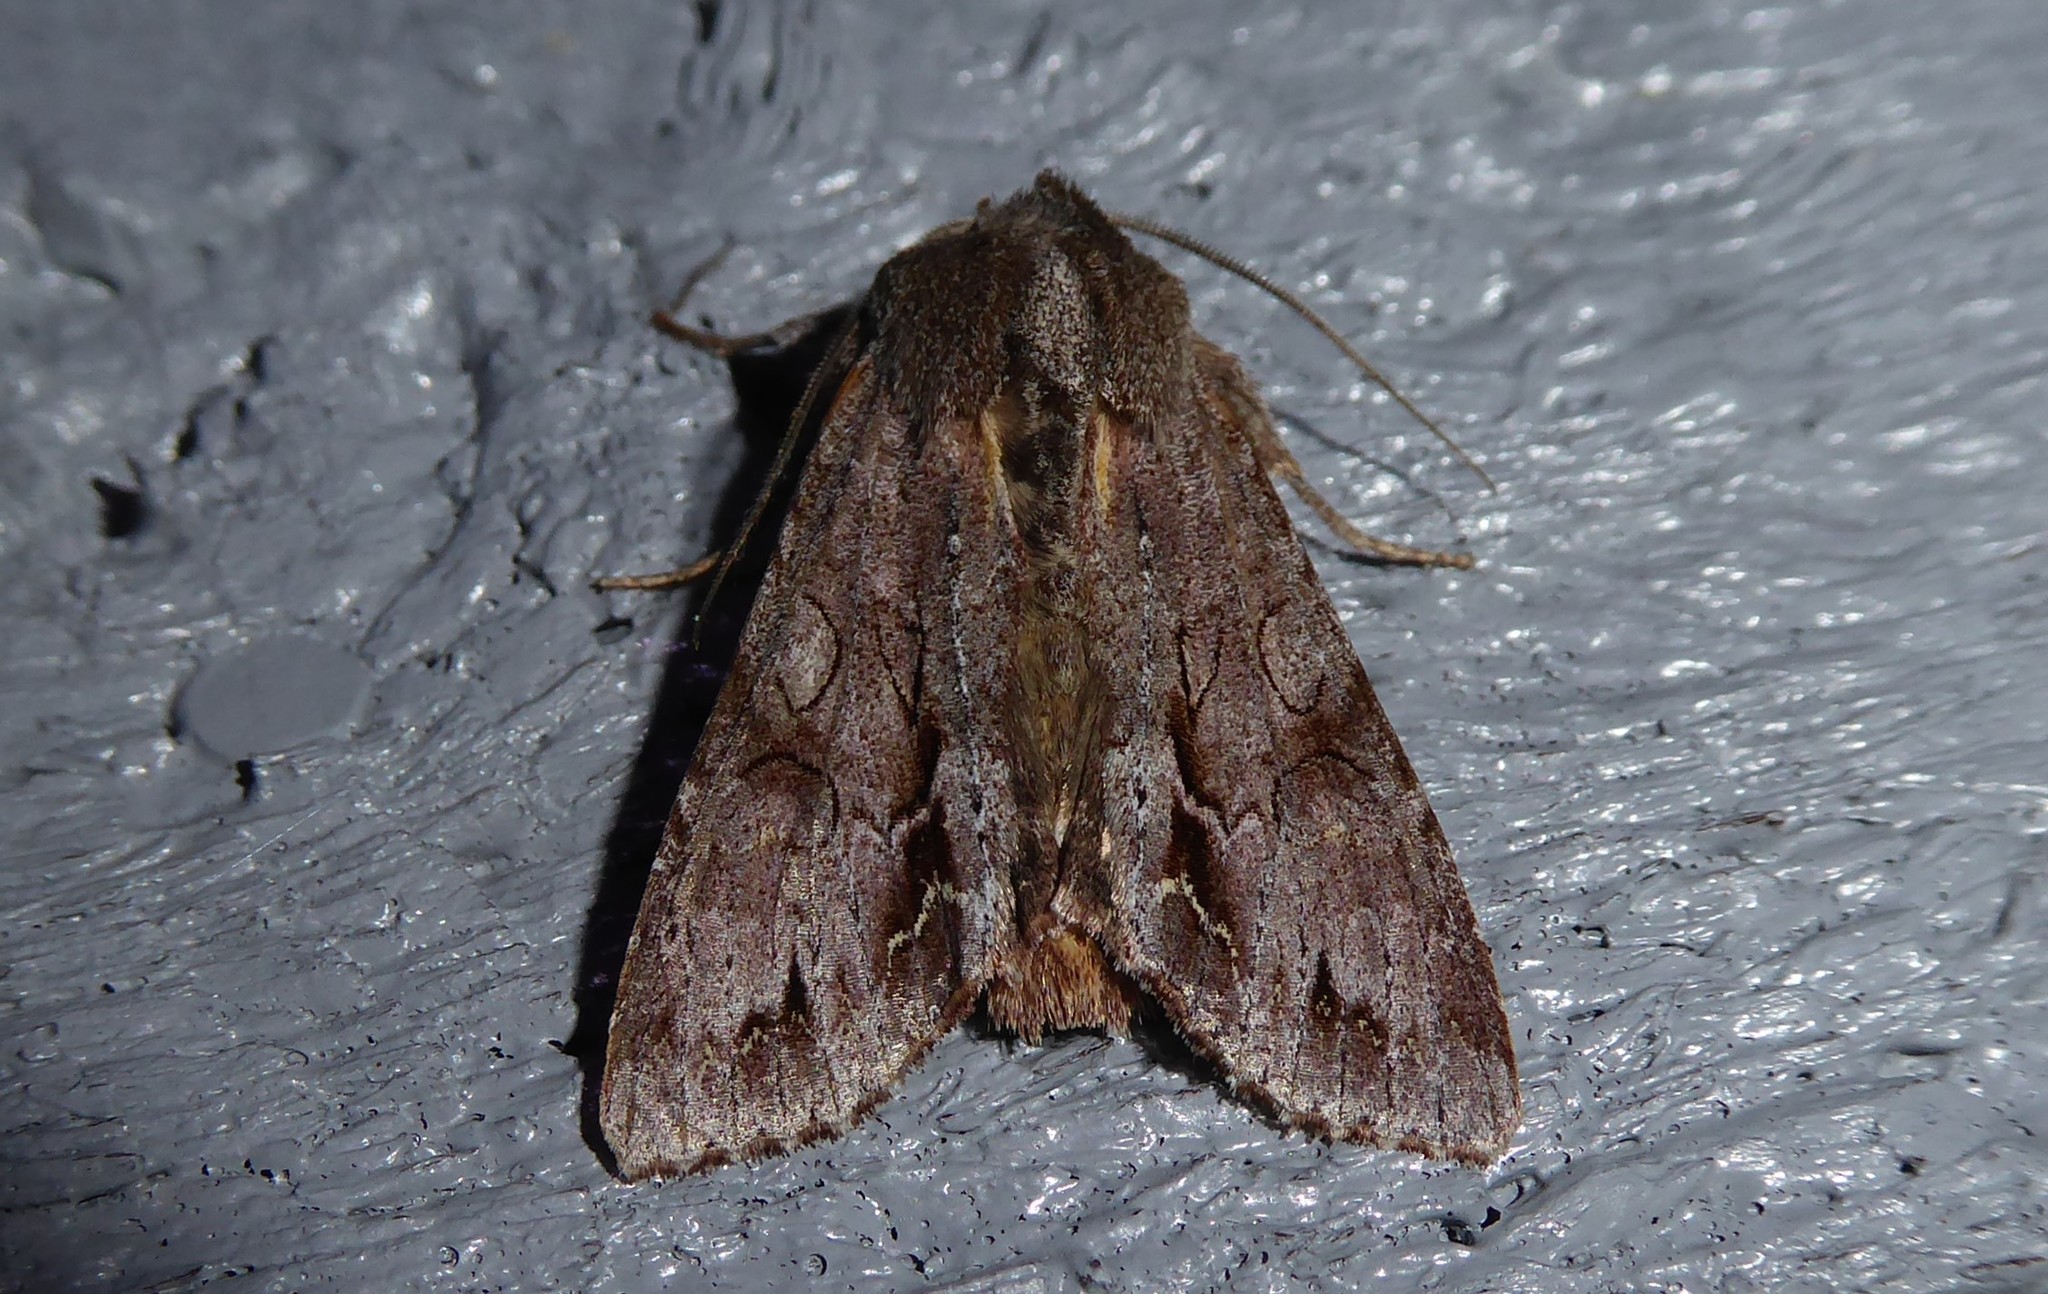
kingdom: Animalia
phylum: Arthropoda
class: Insecta
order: Lepidoptera
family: Noctuidae
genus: Ichneutica
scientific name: Ichneutica
